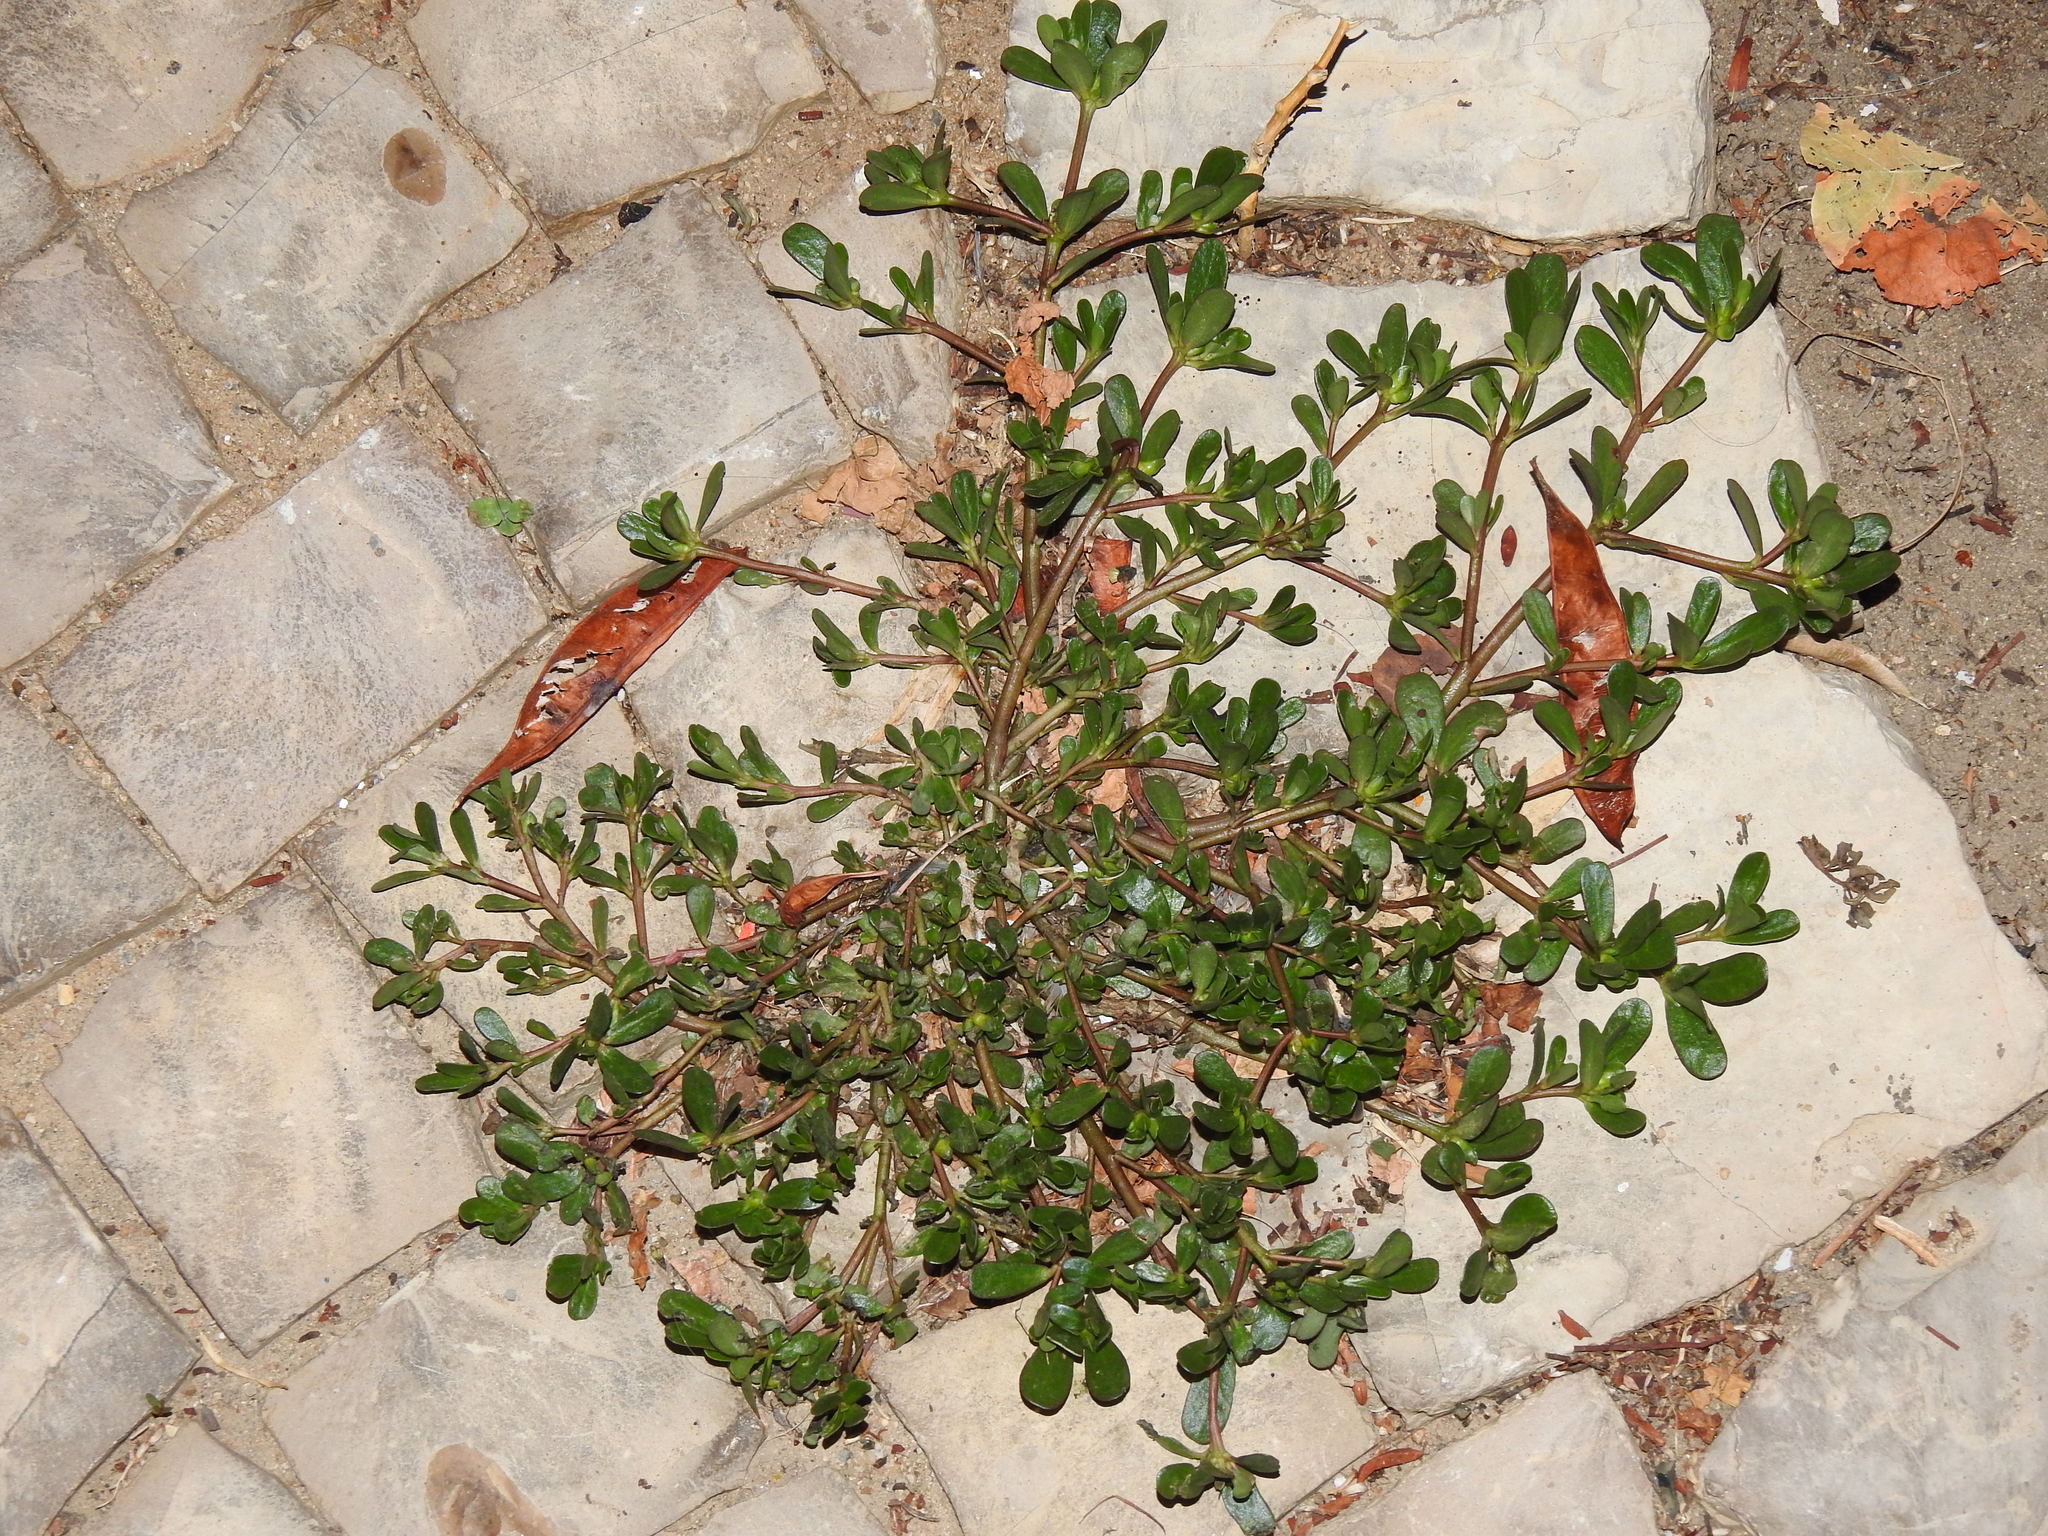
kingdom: Plantae
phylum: Tracheophyta
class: Magnoliopsida
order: Caryophyllales
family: Portulacaceae
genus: Portulaca
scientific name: Portulaca oleracea
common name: Common purslane
